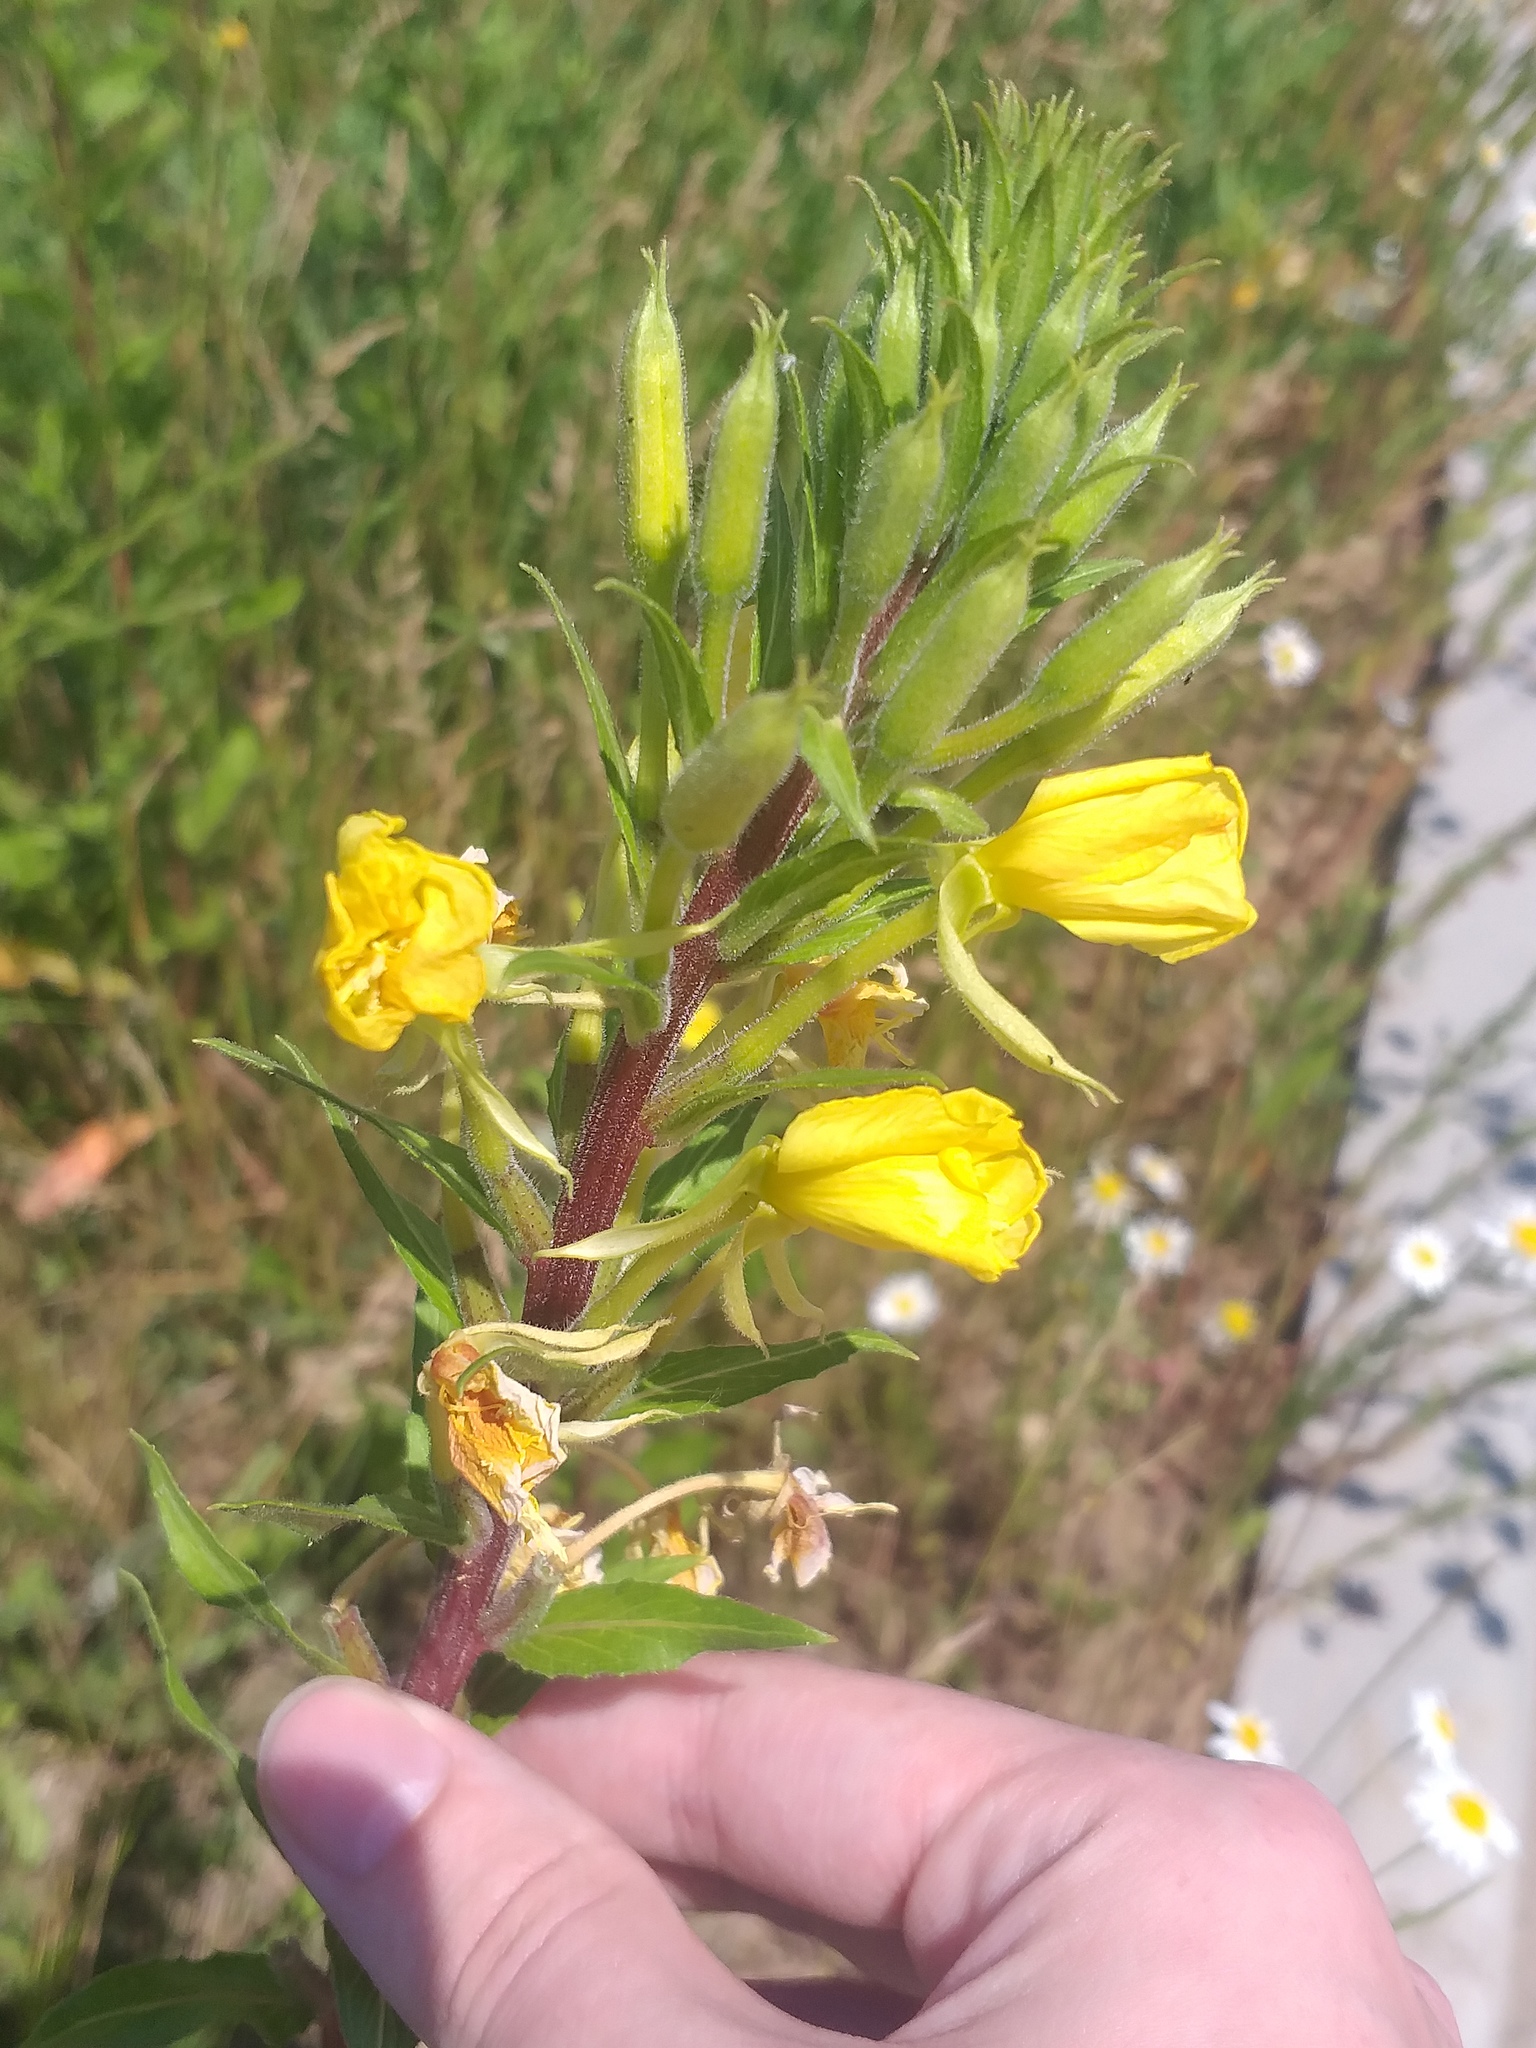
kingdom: Plantae
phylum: Tracheophyta
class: Magnoliopsida
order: Myrtales
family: Onagraceae
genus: Oenothera
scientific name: Oenothera rubricaulis
